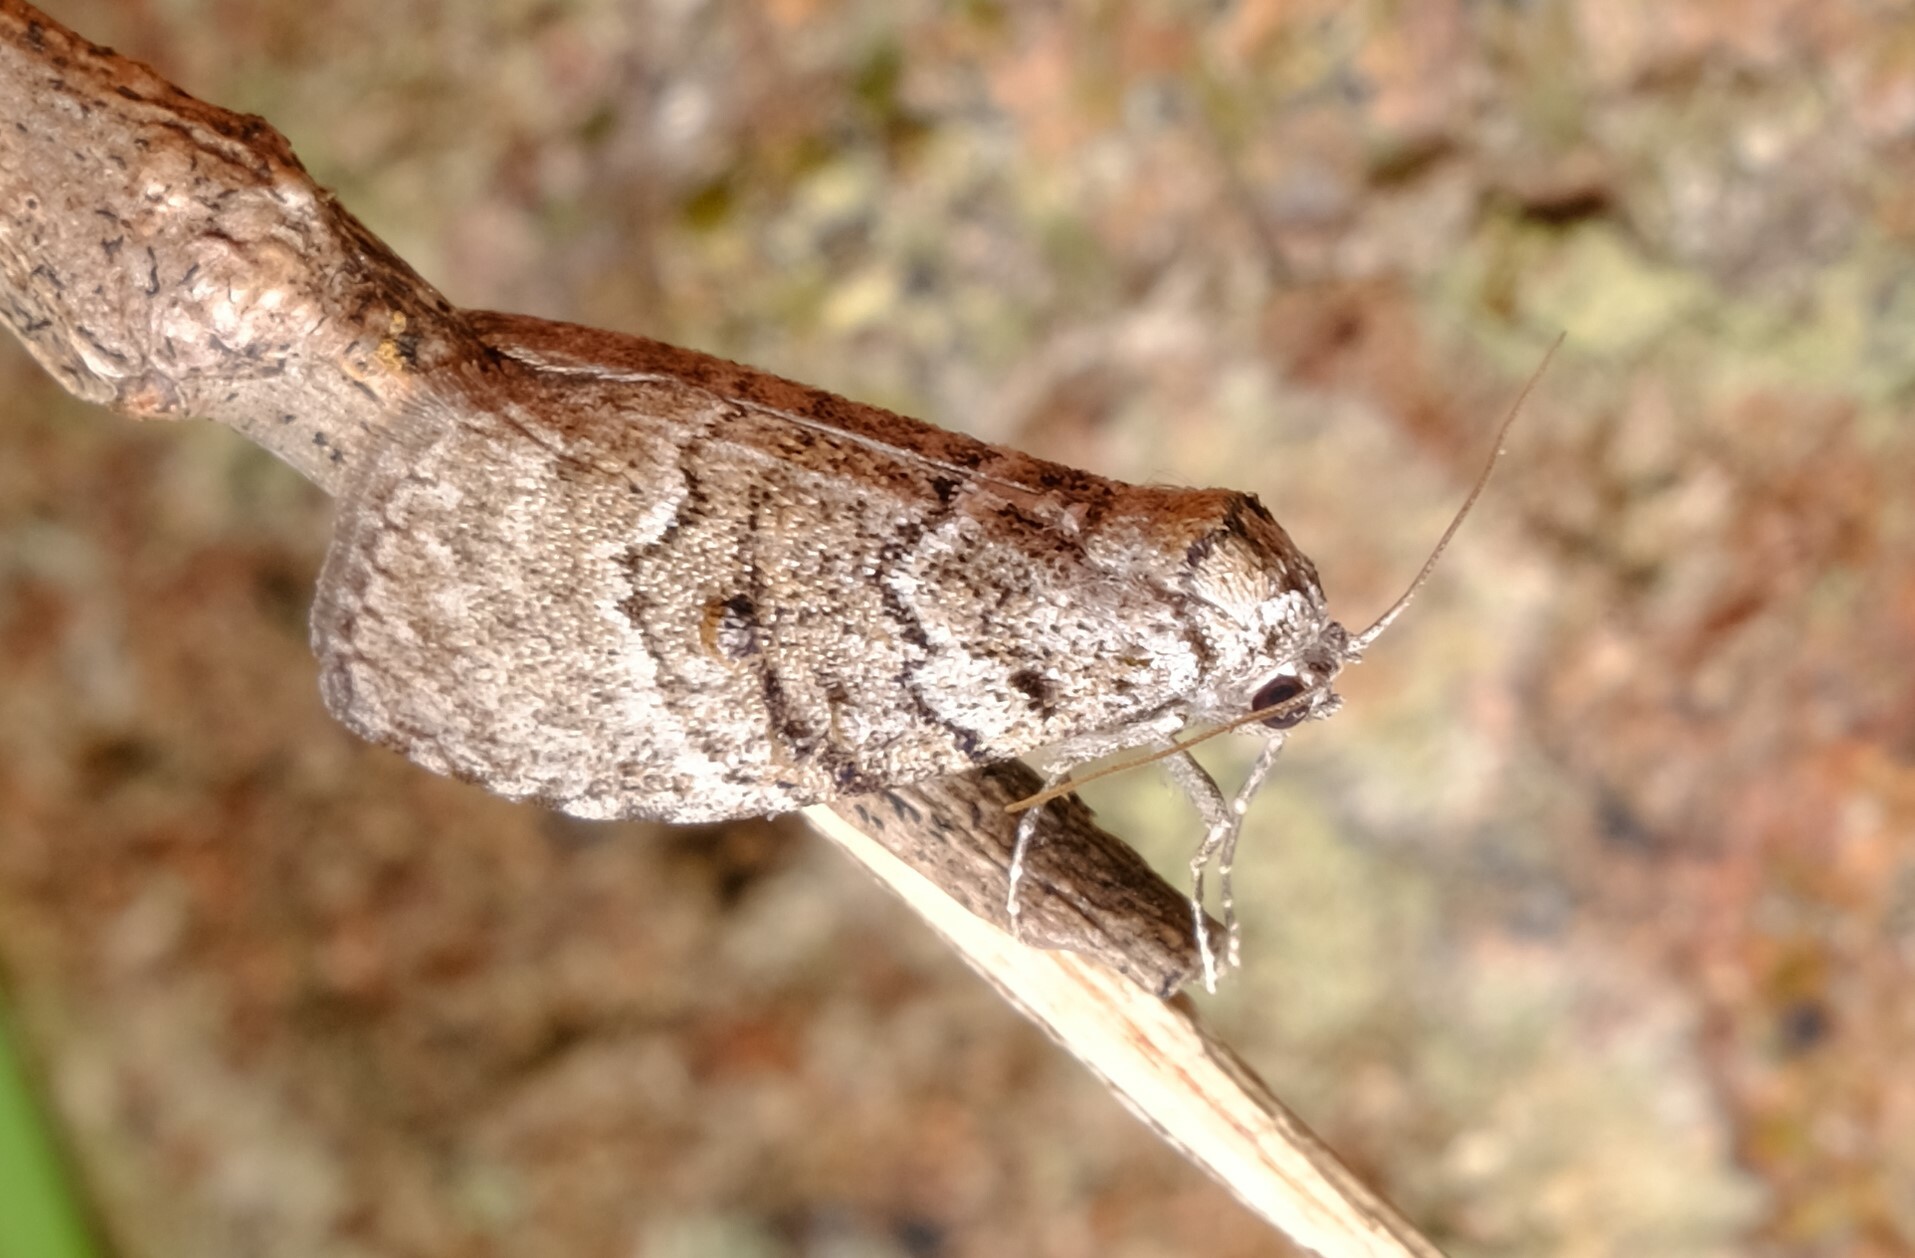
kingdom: Animalia
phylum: Arthropoda
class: Insecta
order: Lepidoptera
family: Nolidae
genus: Uraba
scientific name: Uraba lugens
